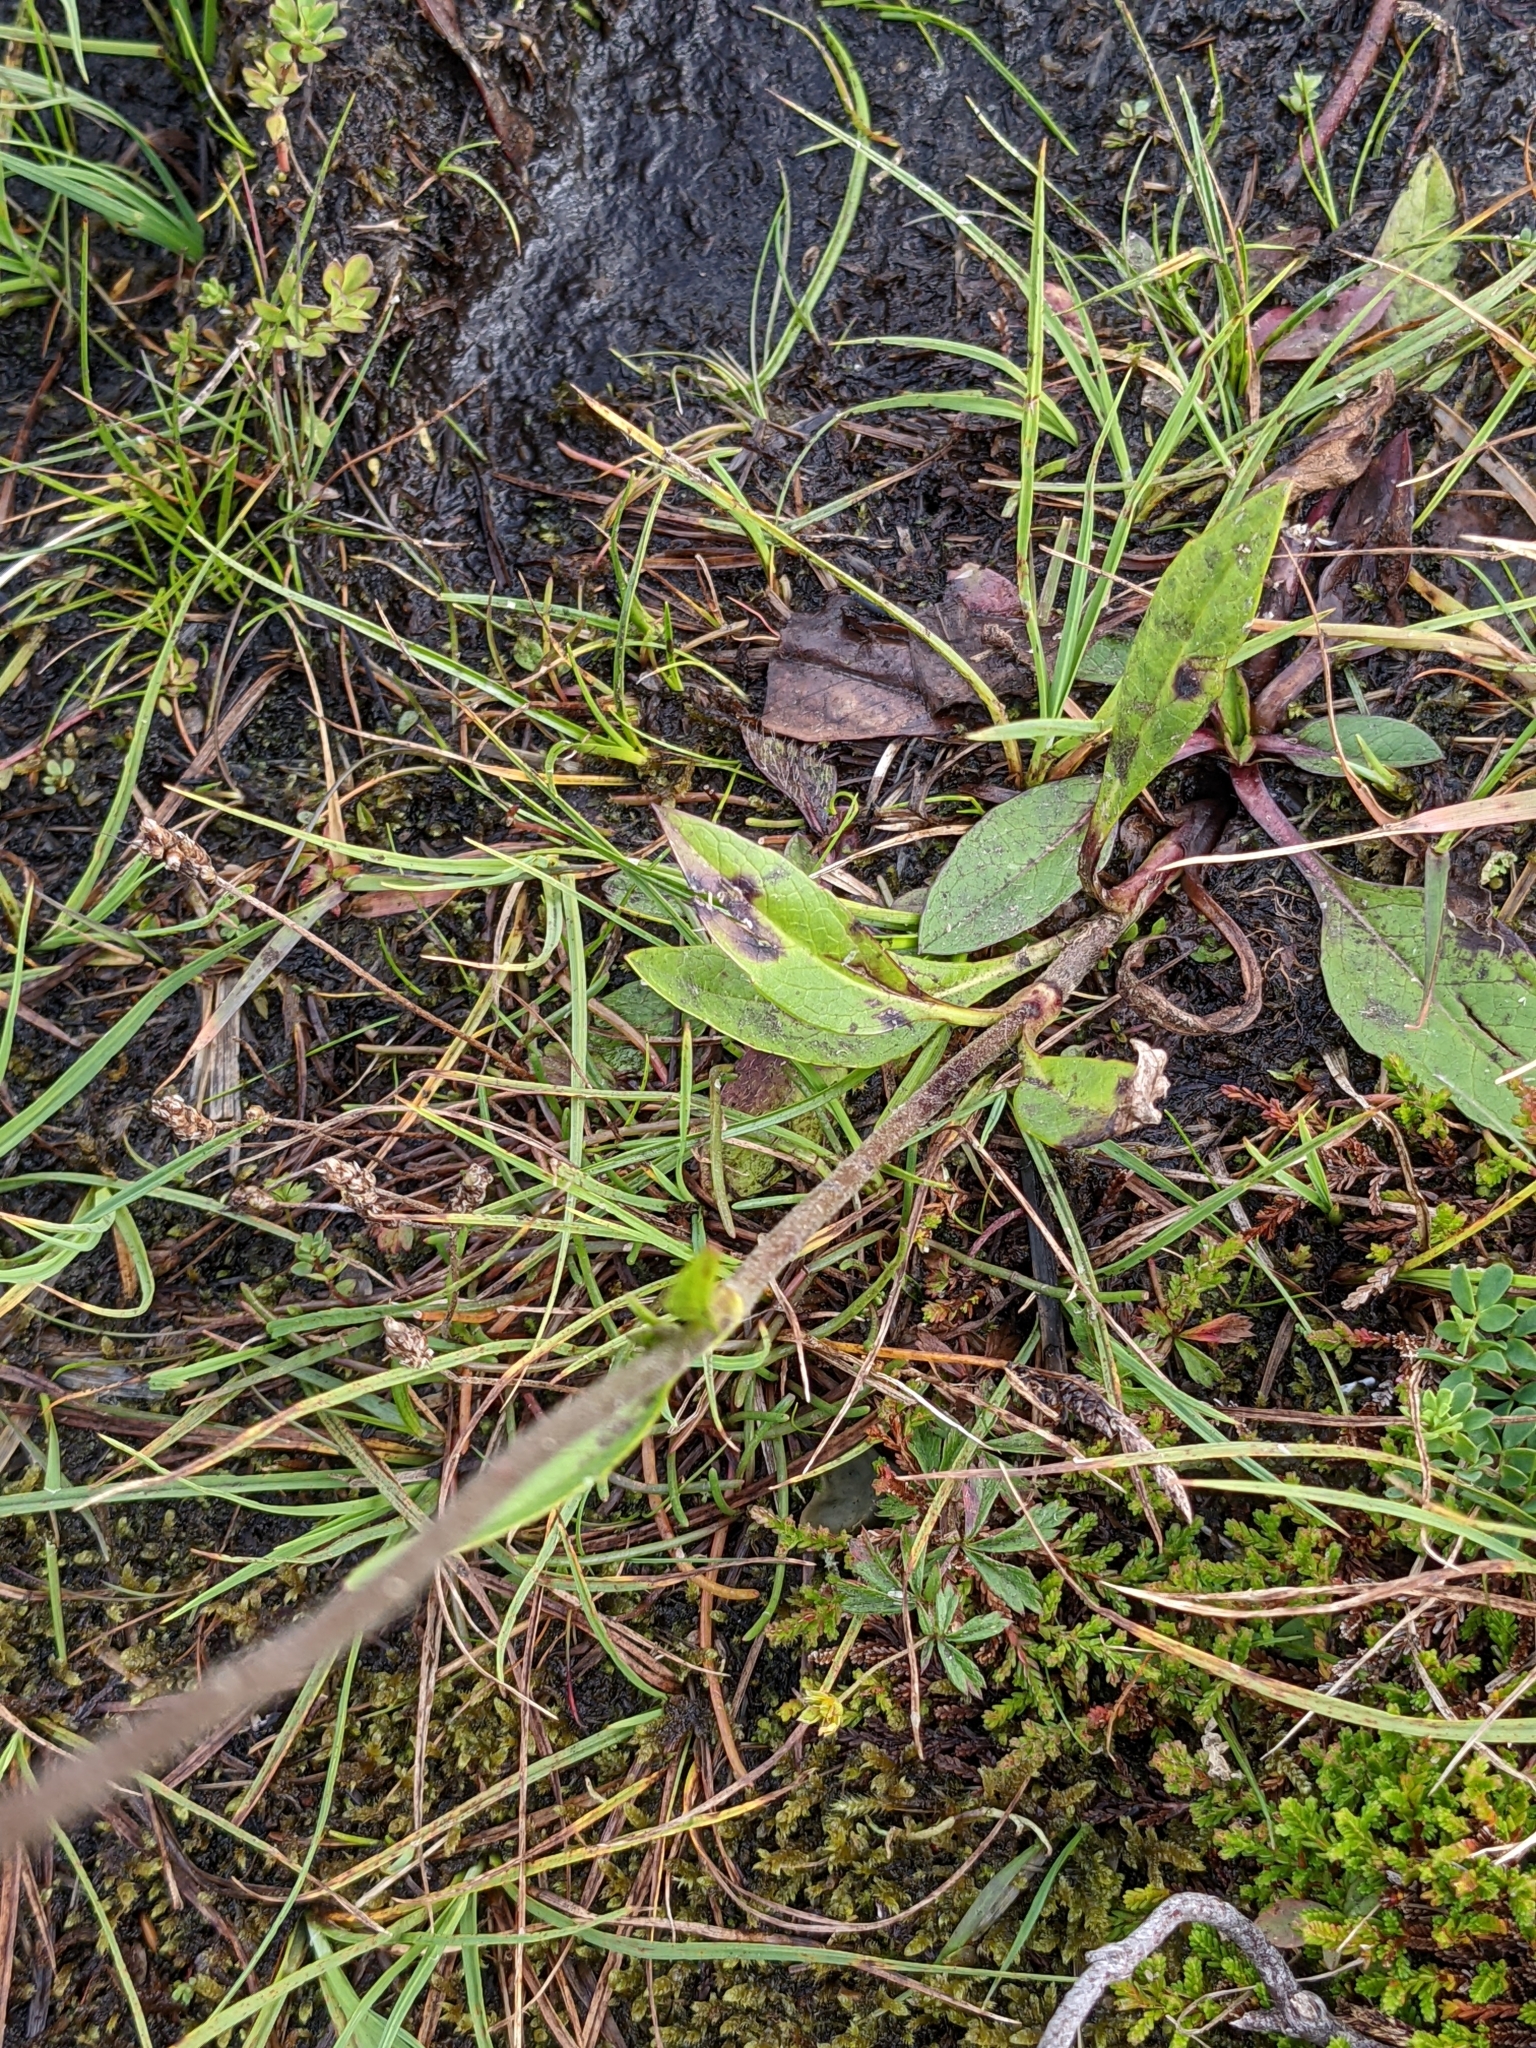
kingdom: Plantae
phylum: Tracheophyta
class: Magnoliopsida
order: Dipsacales
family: Caprifoliaceae
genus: Succisa
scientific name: Succisa pratensis
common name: Devil's-bit
